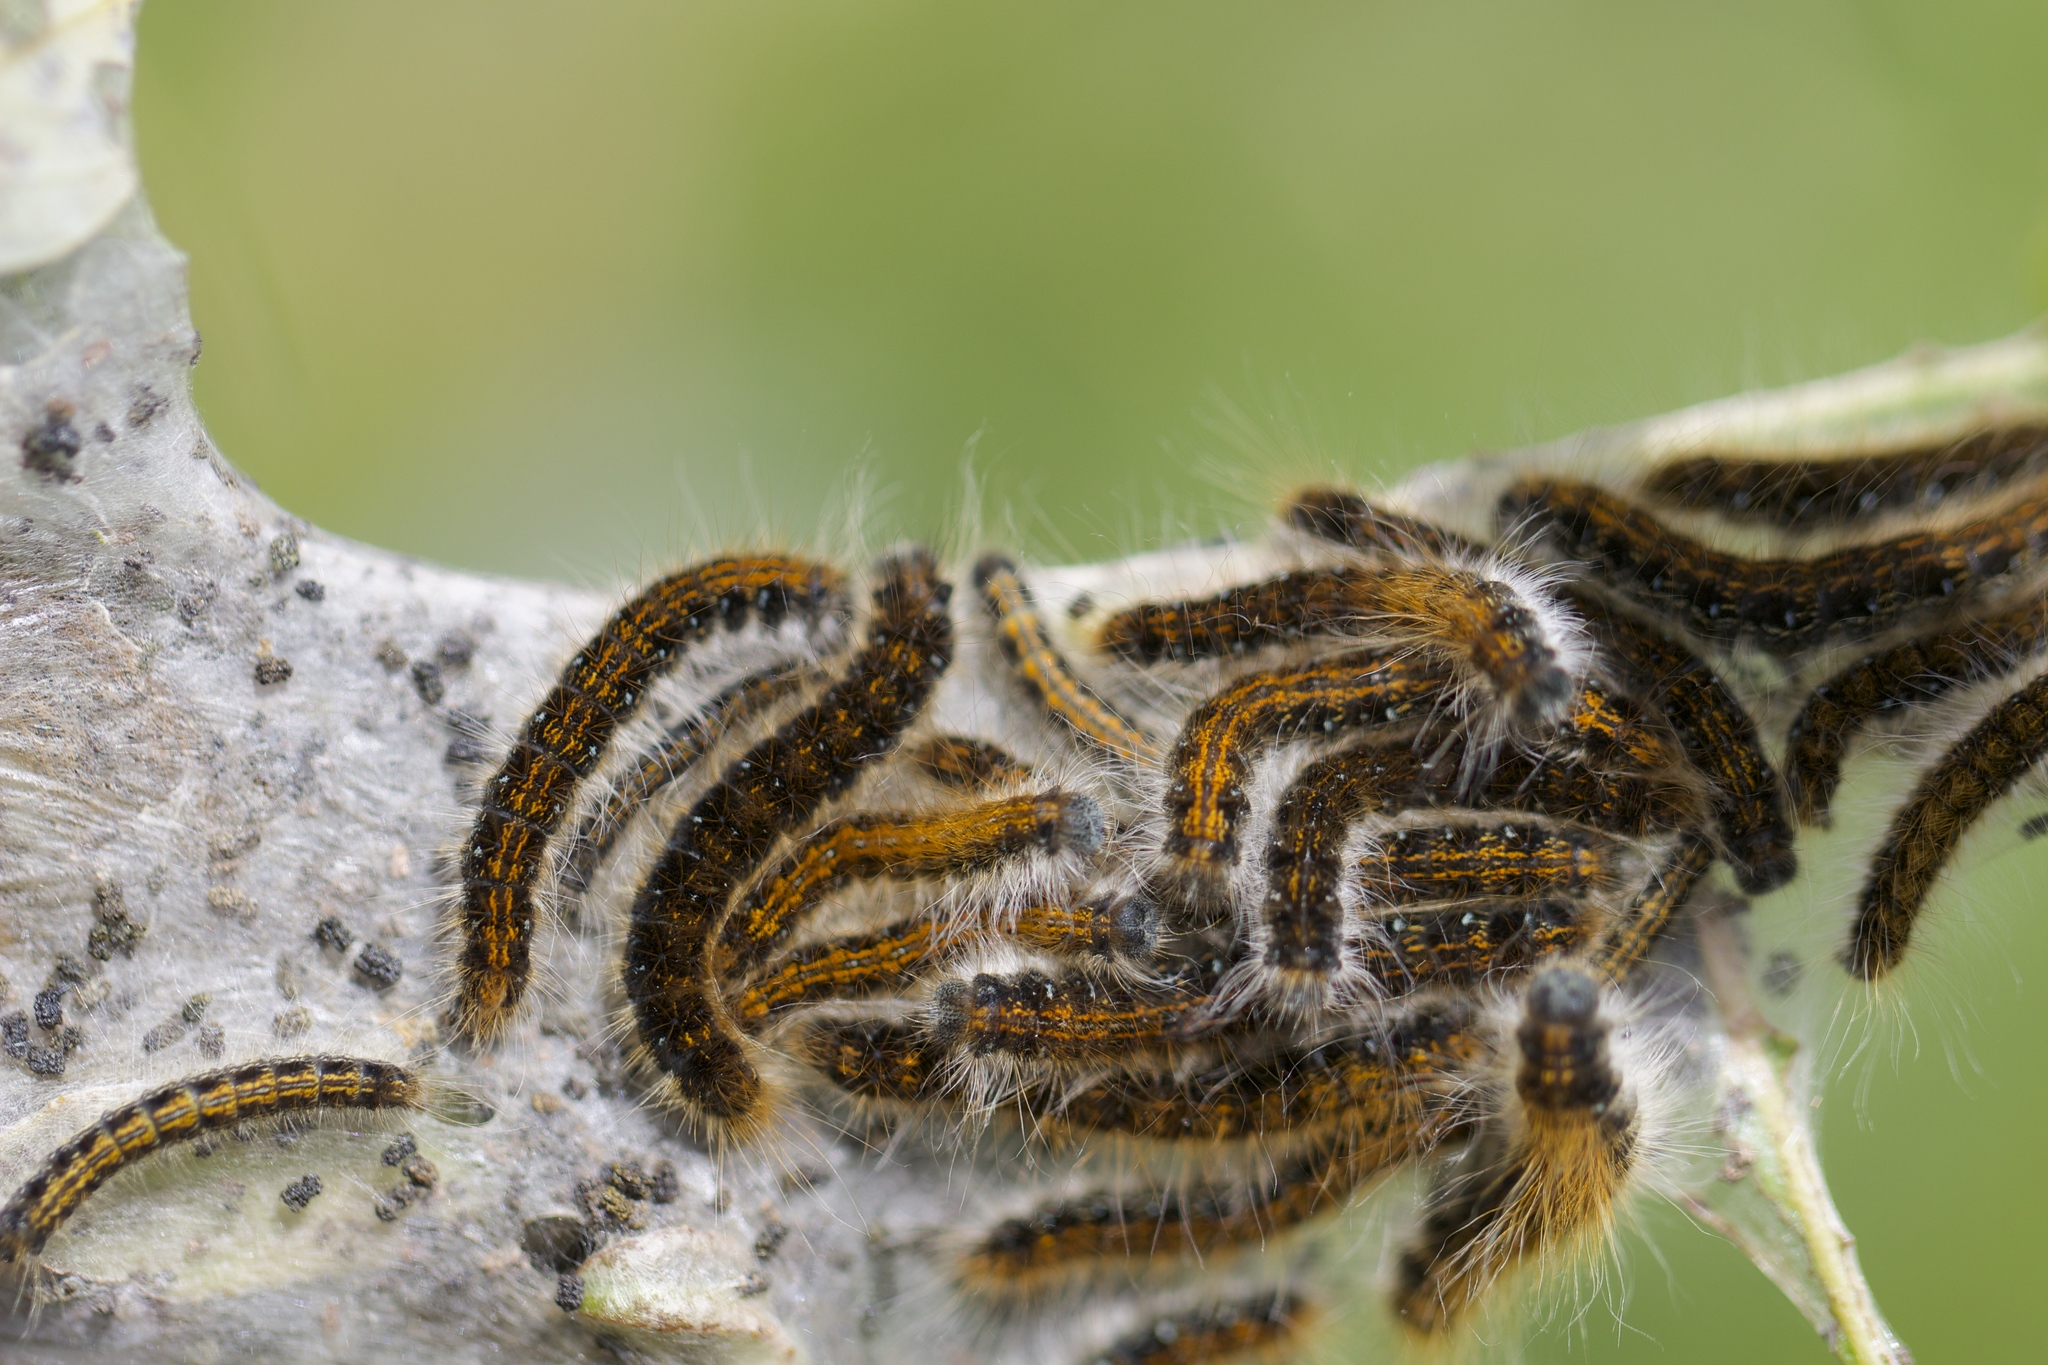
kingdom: Animalia
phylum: Arthropoda
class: Insecta
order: Lepidoptera
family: Lasiocampidae
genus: Malacosoma
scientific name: Malacosoma californica
